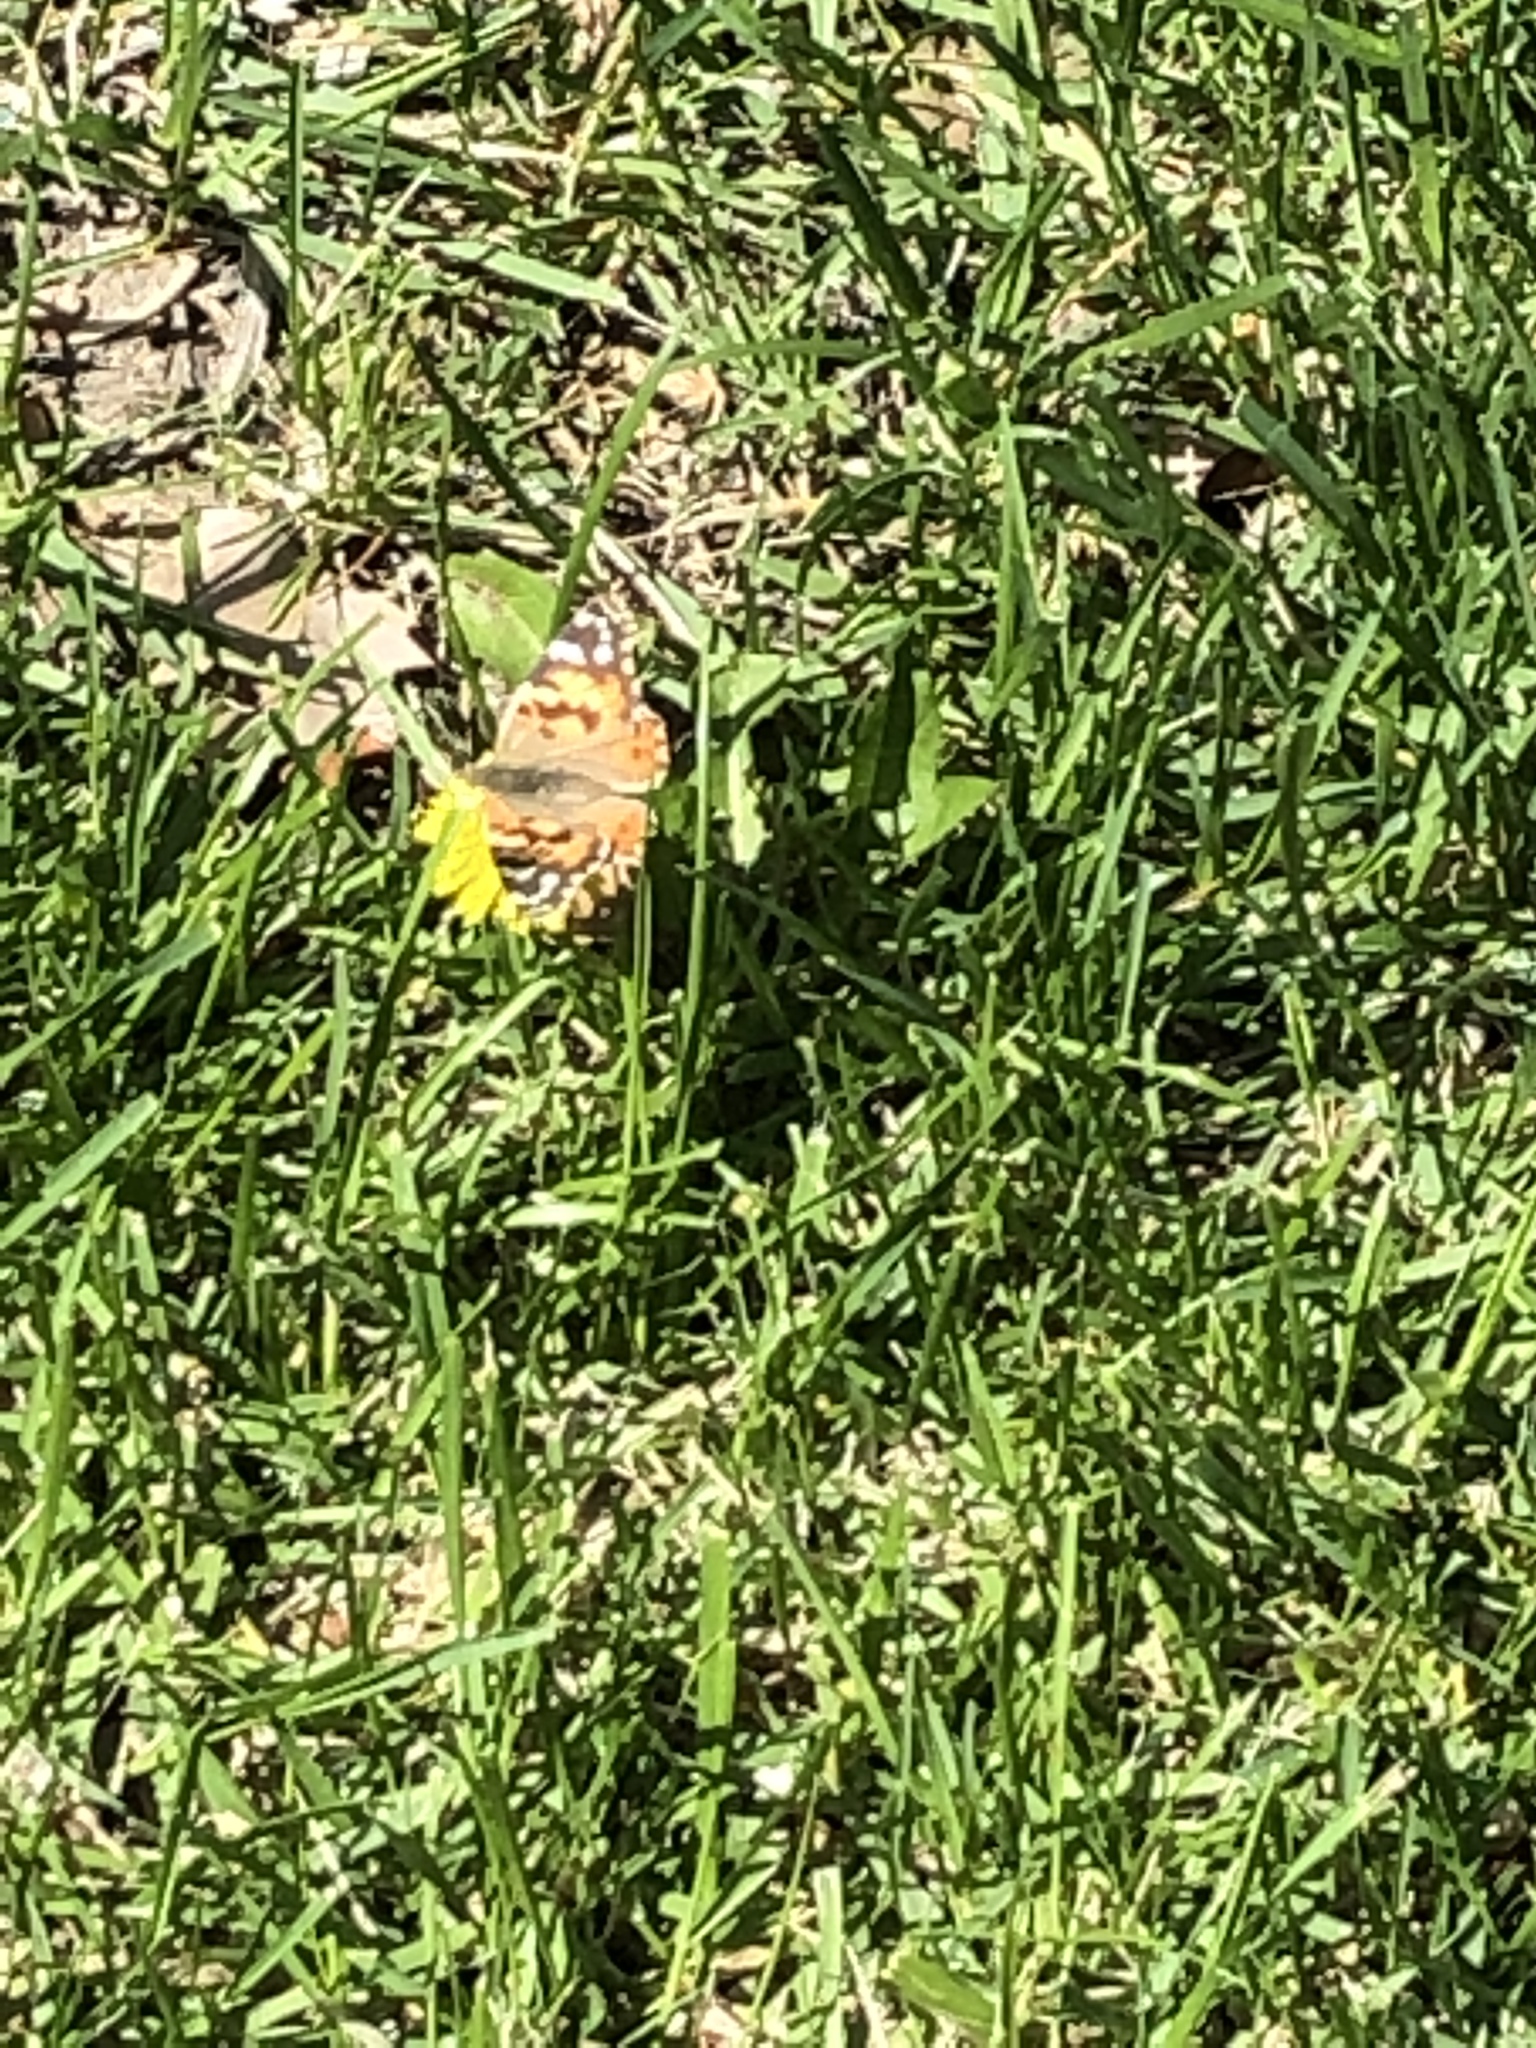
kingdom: Animalia
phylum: Arthropoda
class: Insecta
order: Lepidoptera
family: Nymphalidae
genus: Vanessa
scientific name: Vanessa cardui
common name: Painted lady
